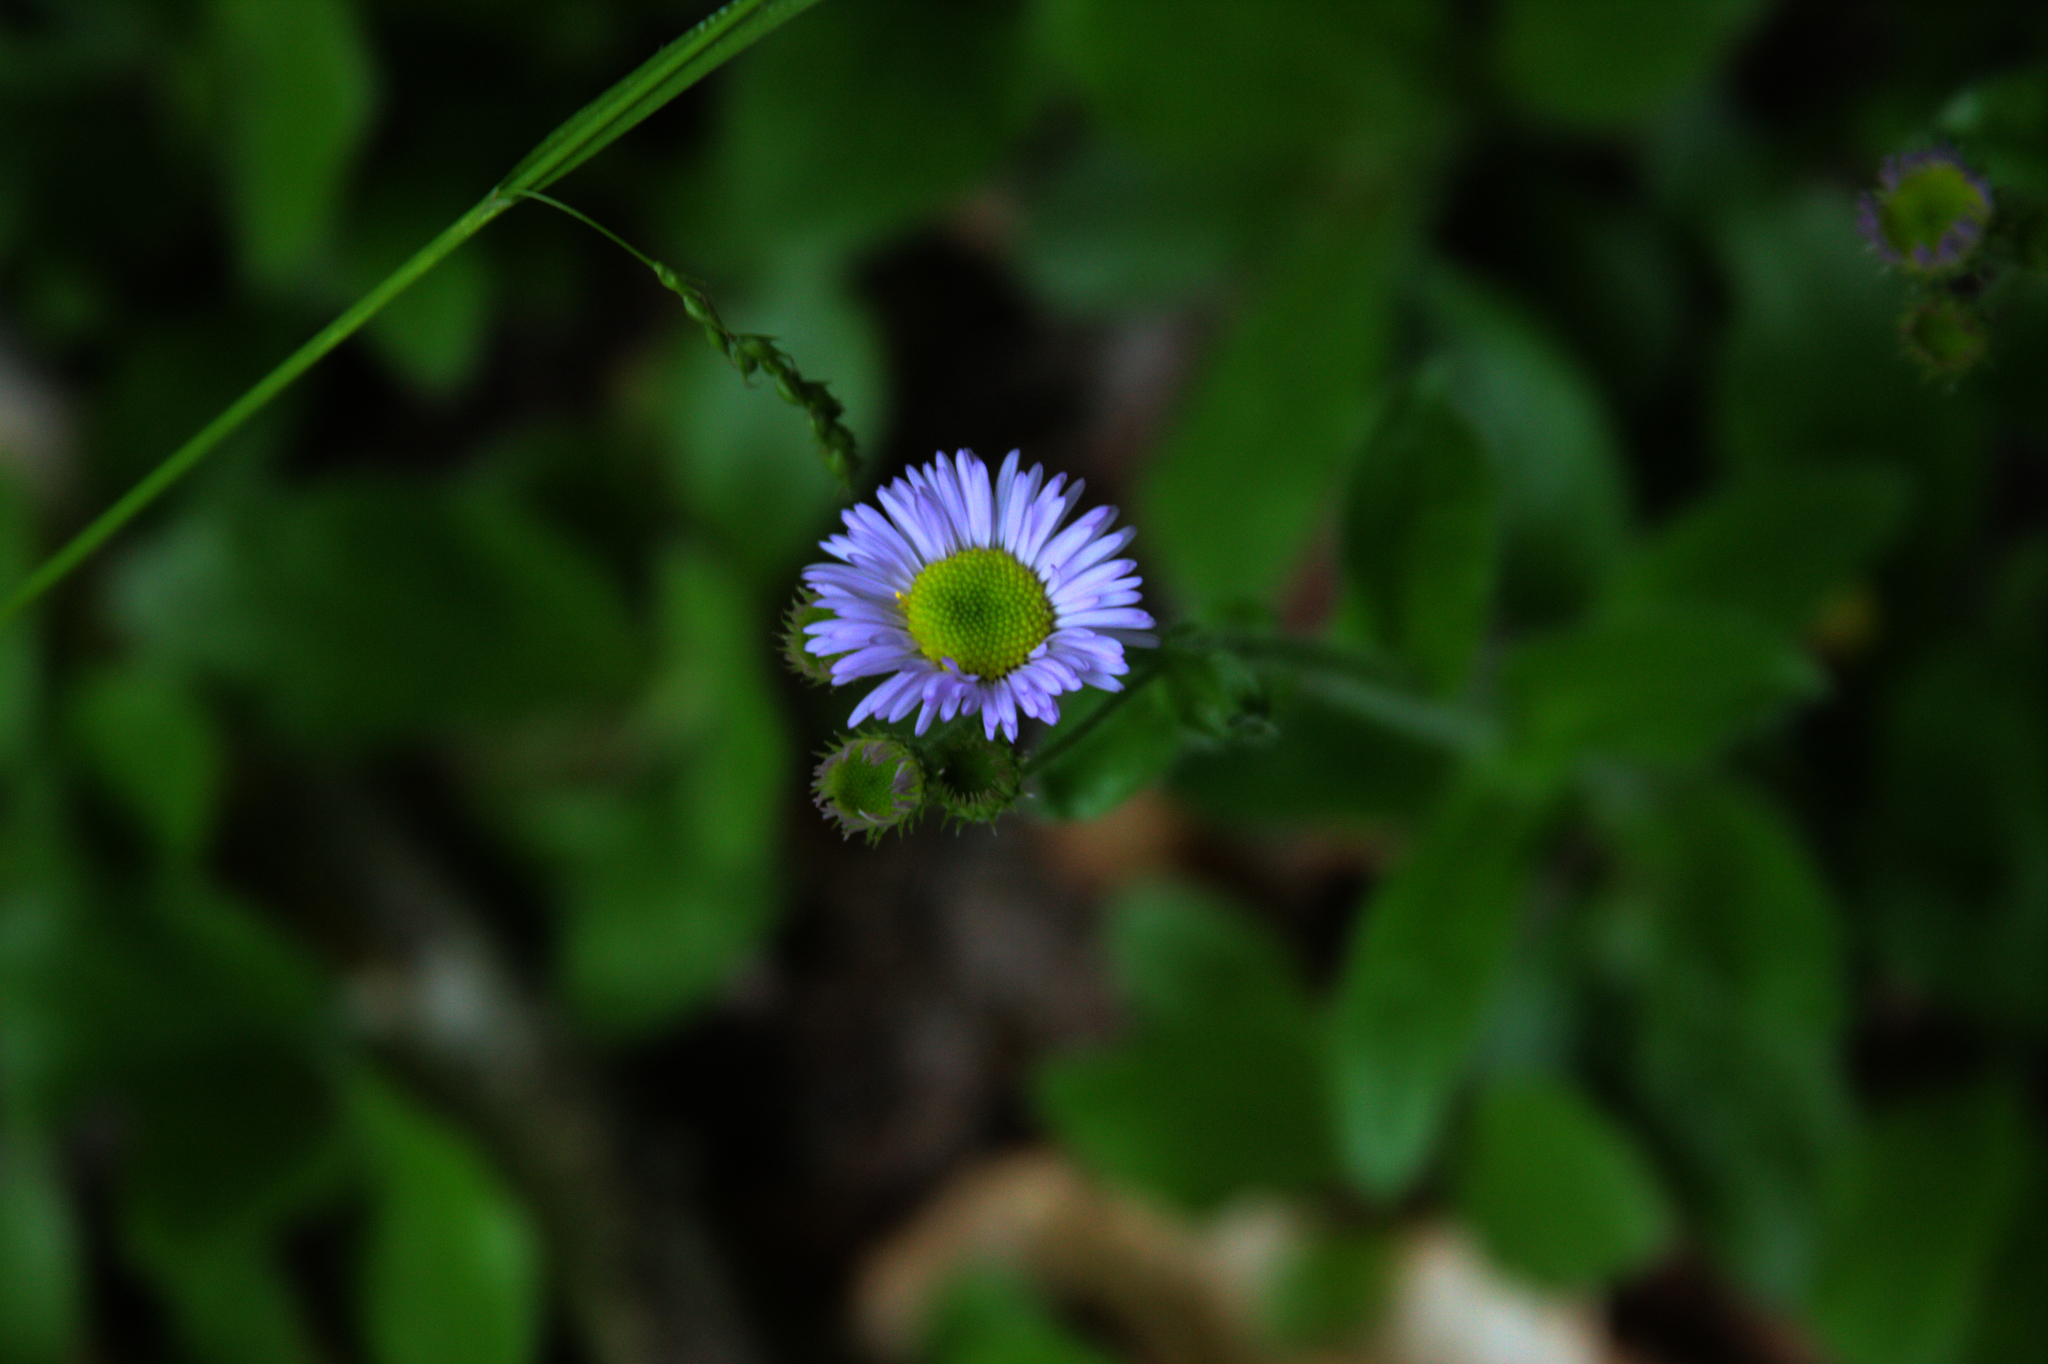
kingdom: Plantae
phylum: Tracheophyta
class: Magnoliopsida
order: Asterales
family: Asteraceae
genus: Erigeron
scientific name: Erigeron pulchellus
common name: Hairy fleabane
